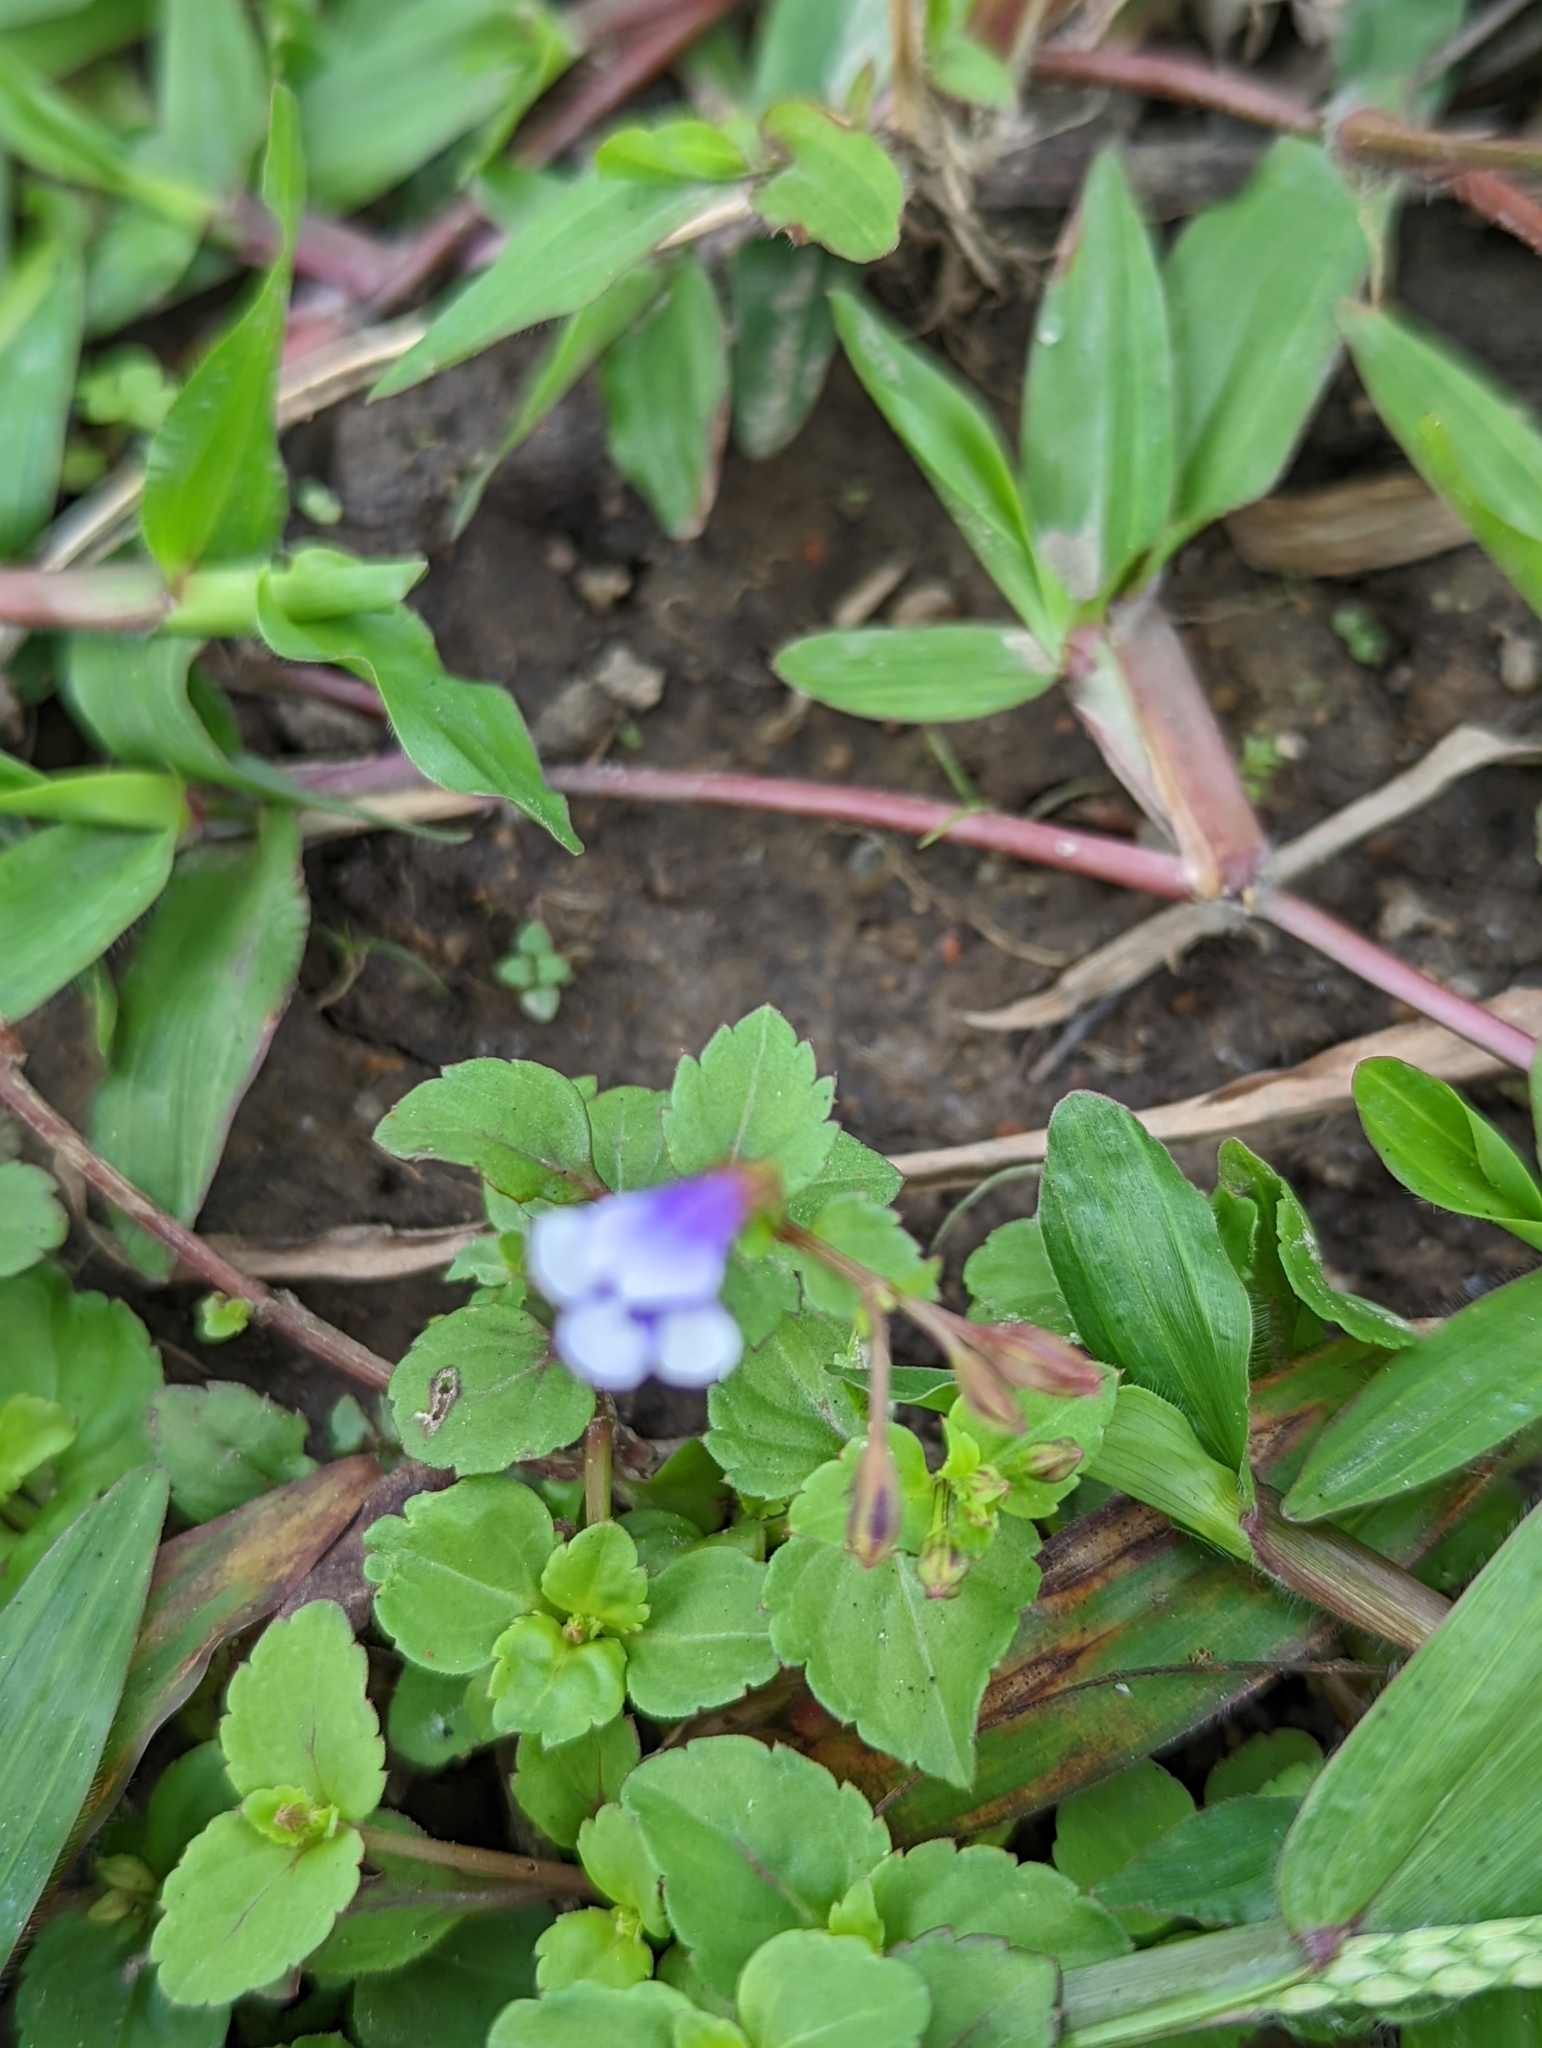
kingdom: Plantae
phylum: Tracheophyta
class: Magnoliopsida
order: Lamiales
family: Linderniaceae
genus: Torenia
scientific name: Torenia crustacea
